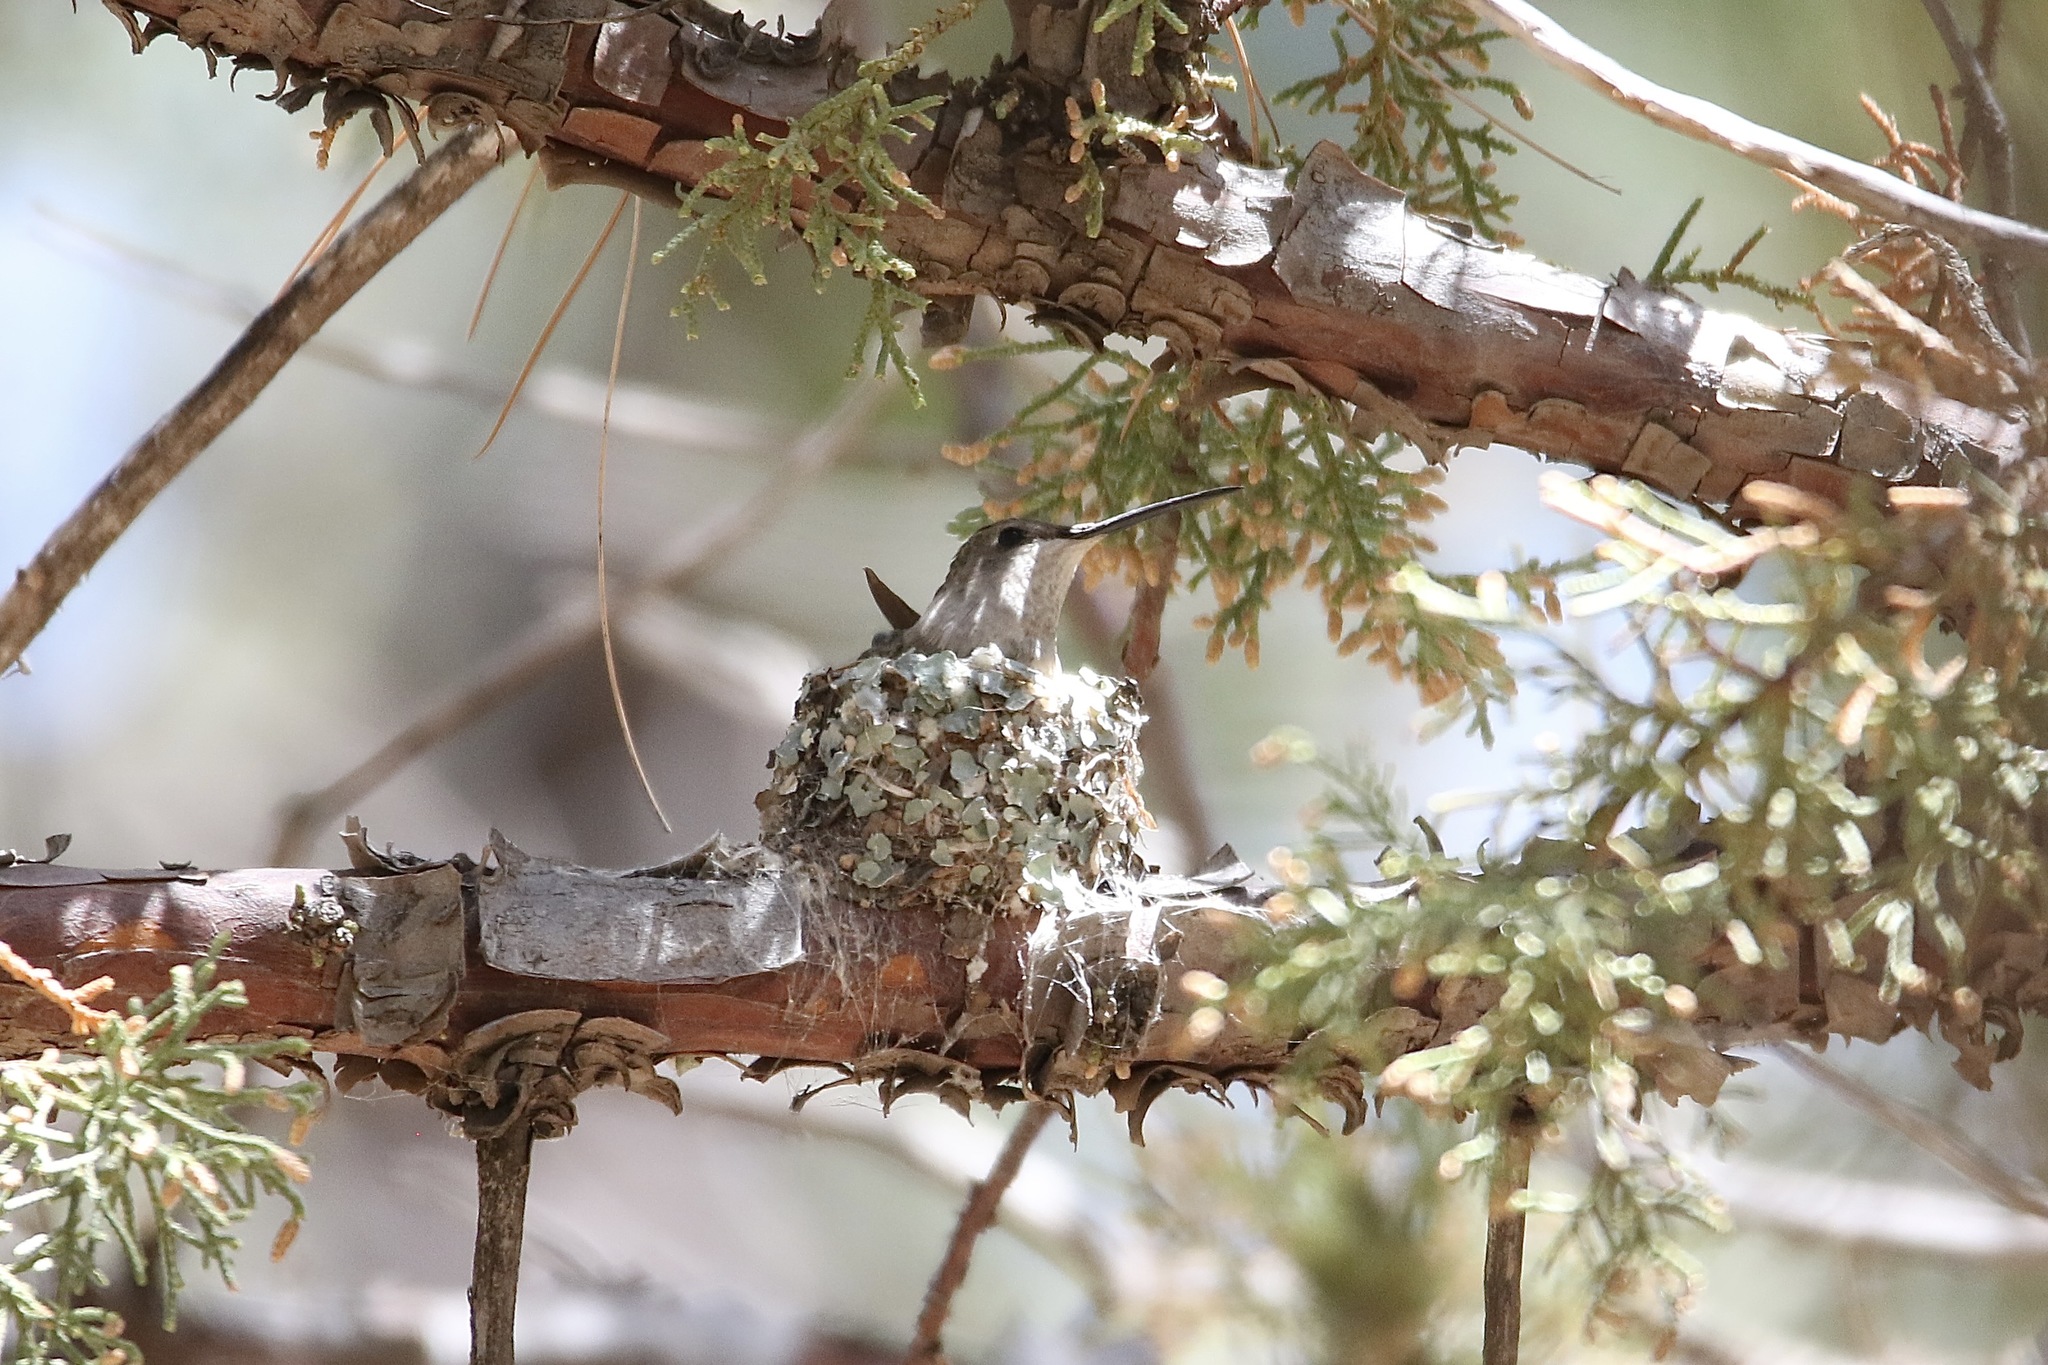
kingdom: Animalia
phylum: Chordata
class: Aves
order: Apodiformes
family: Trochilidae
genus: Archilochus
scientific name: Archilochus alexandri
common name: Black-chinned hummingbird
